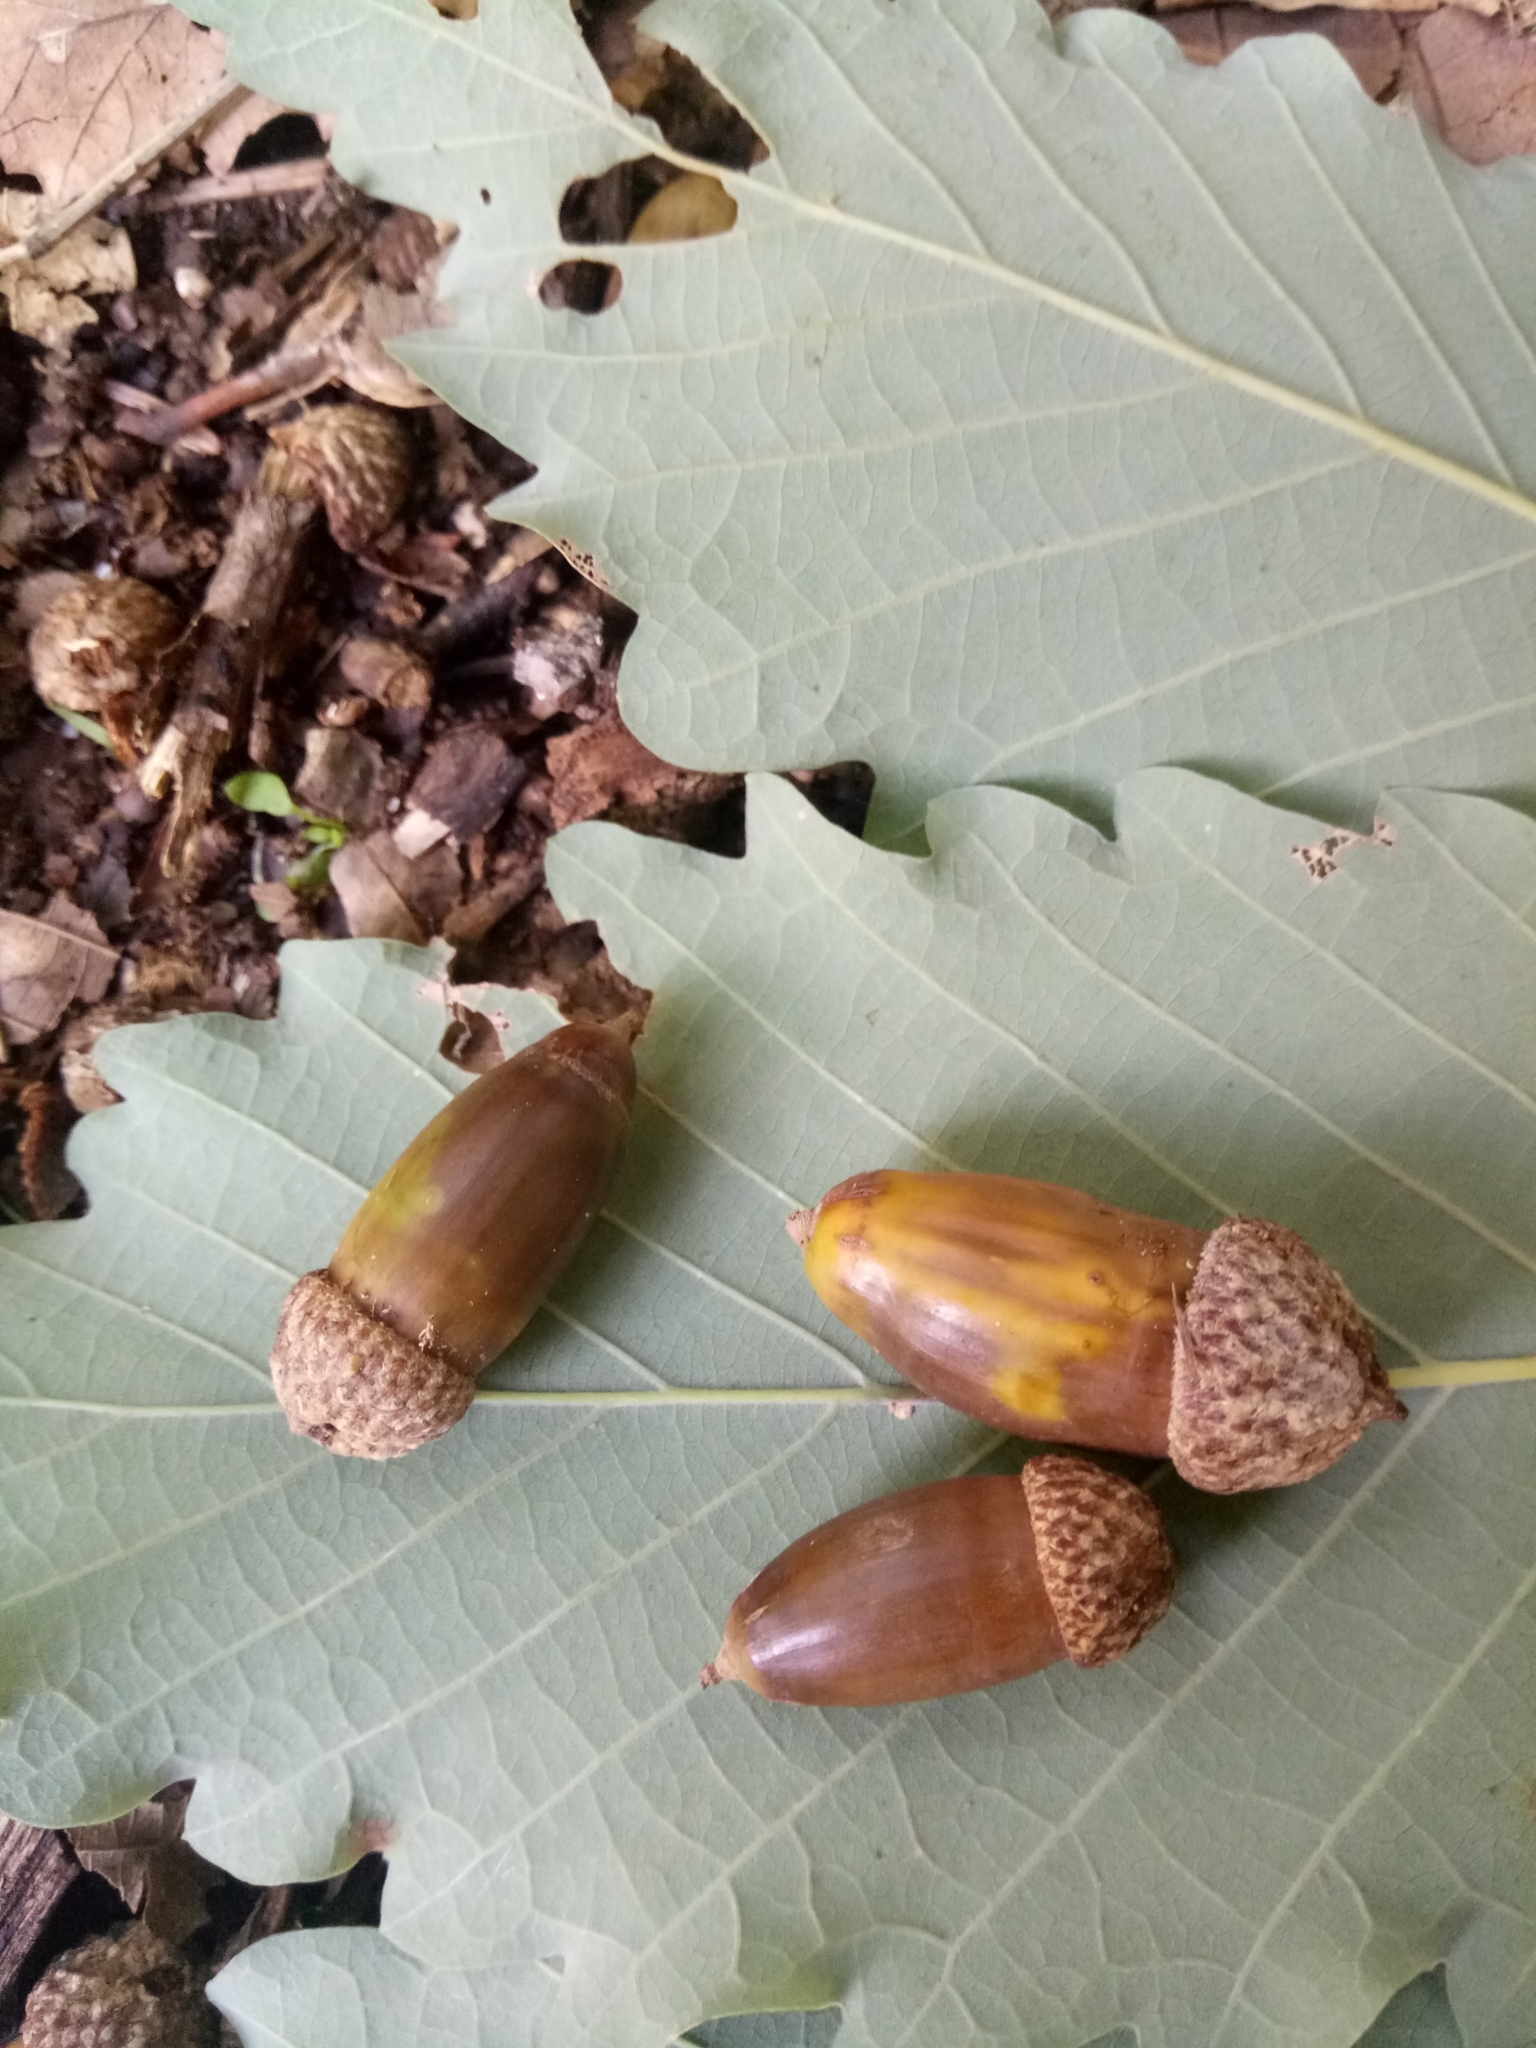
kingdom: Plantae
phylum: Tracheophyta
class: Magnoliopsida
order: Fagales
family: Fagaceae
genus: Quercus
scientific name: Quercus canariensis
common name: Algerian oak
